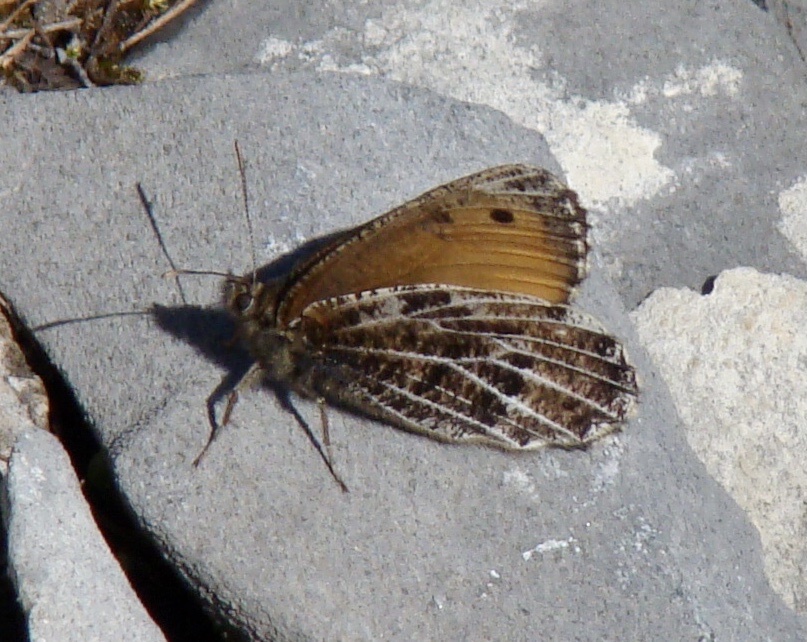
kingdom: Animalia
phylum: Arthropoda
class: Insecta
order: Lepidoptera
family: Nymphalidae
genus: Oeneis
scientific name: Oeneis aello
